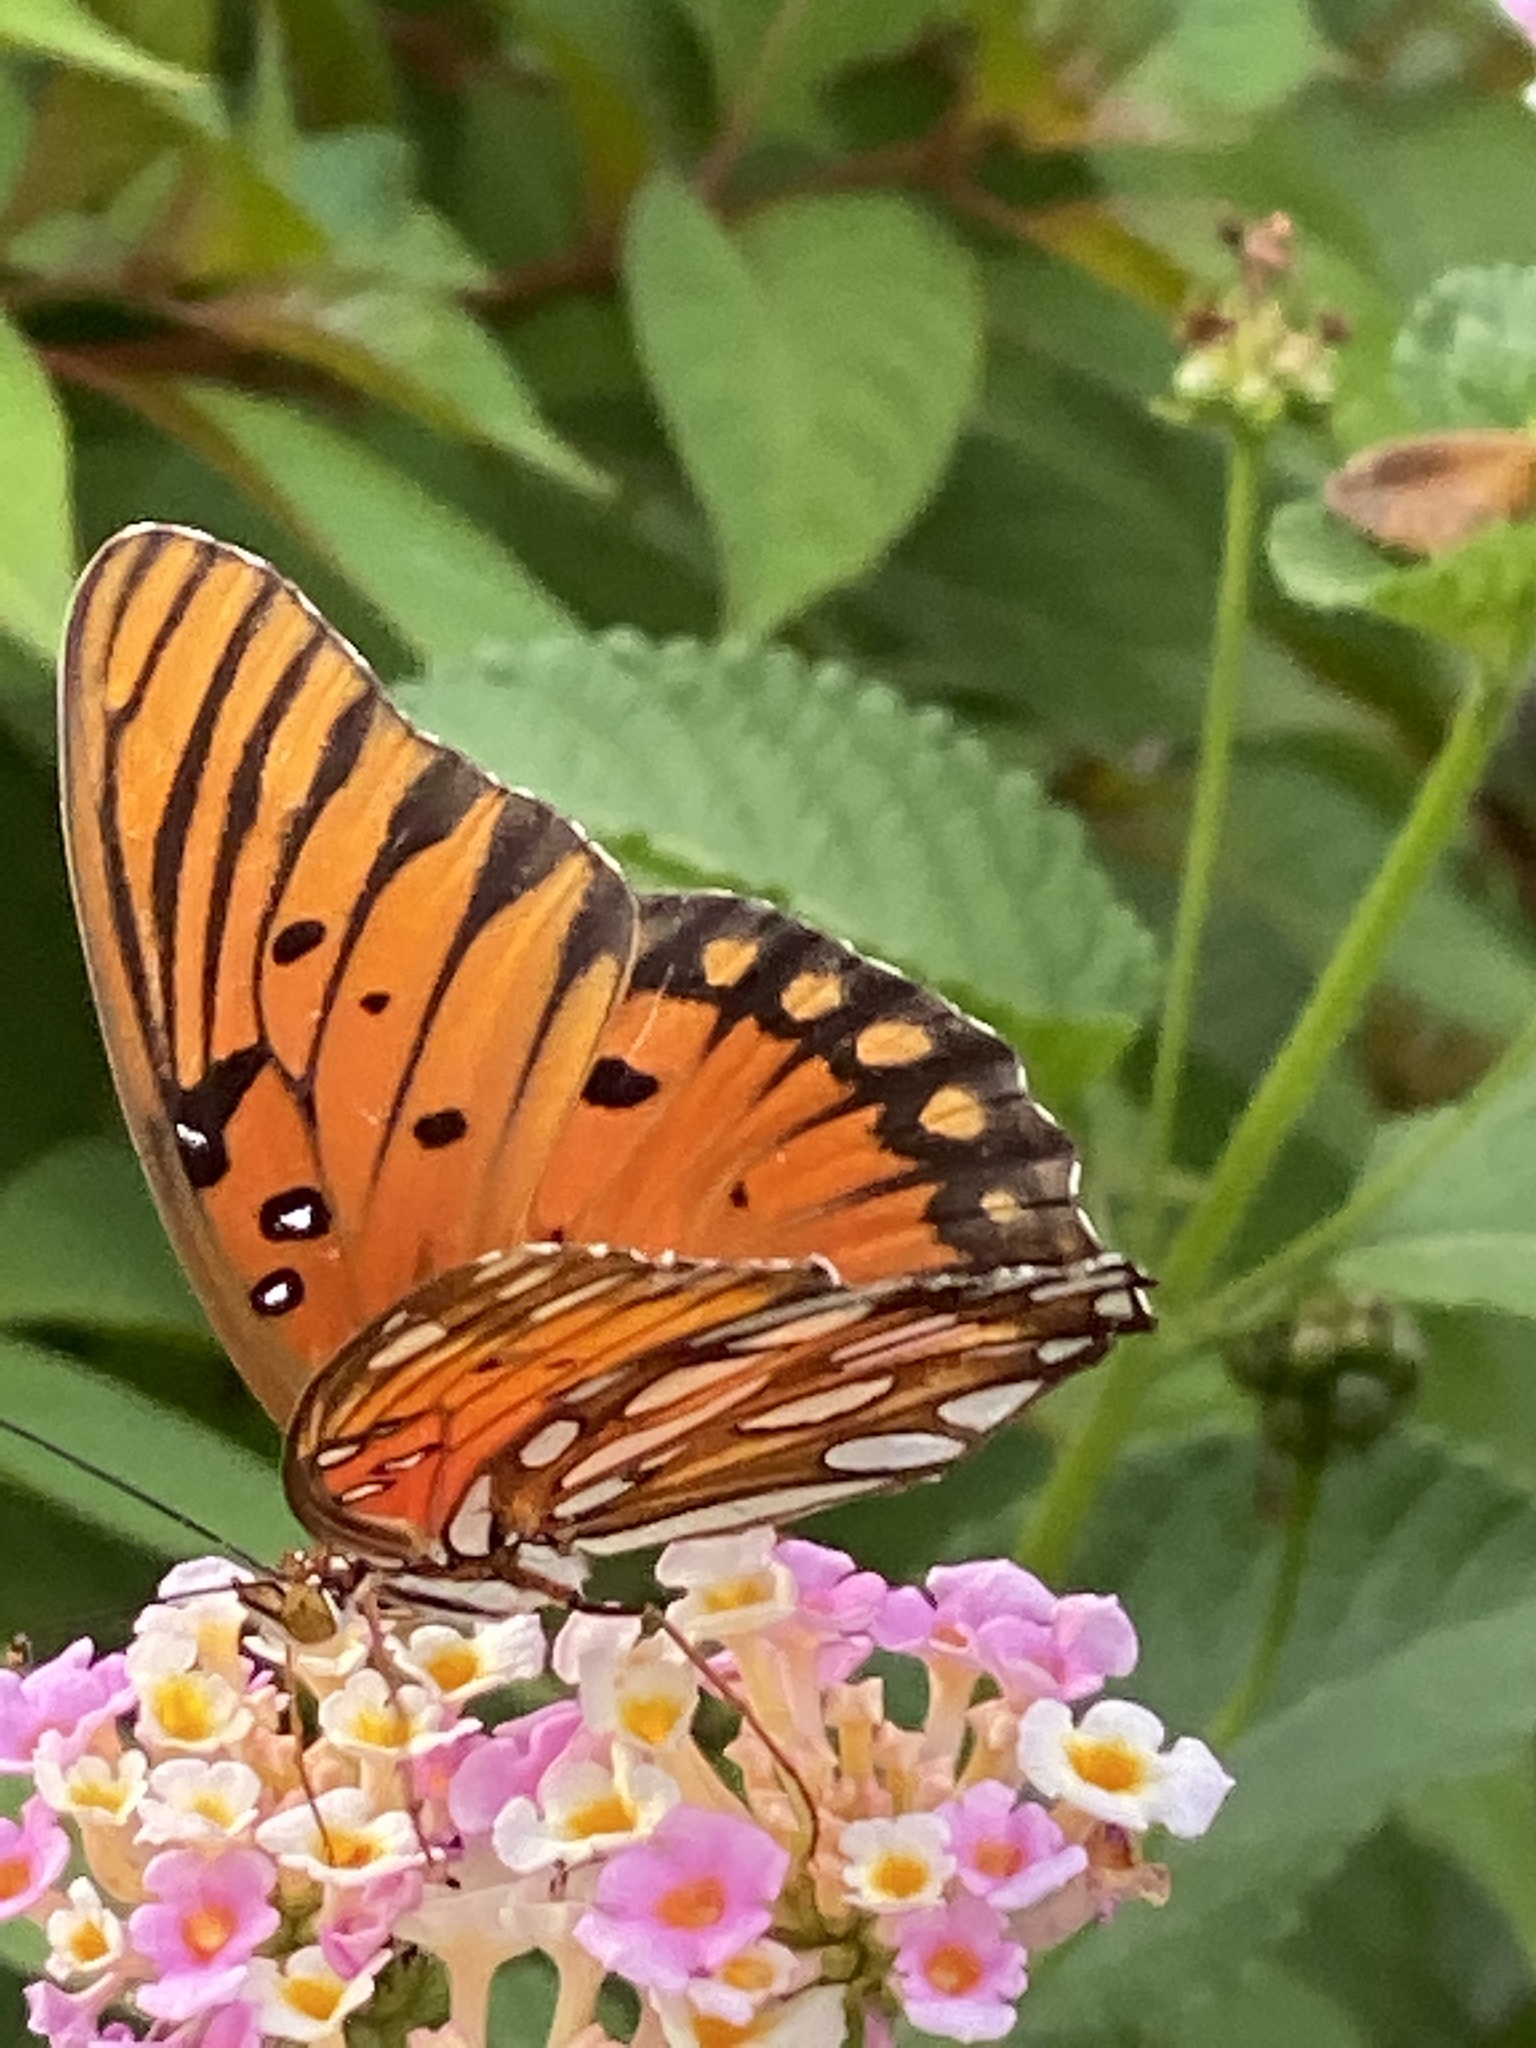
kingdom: Animalia
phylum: Arthropoda
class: Insecta
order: Lepidoptera
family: Nymphalidae
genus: Dione
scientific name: Dione vanillae
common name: Gulf fritillary
